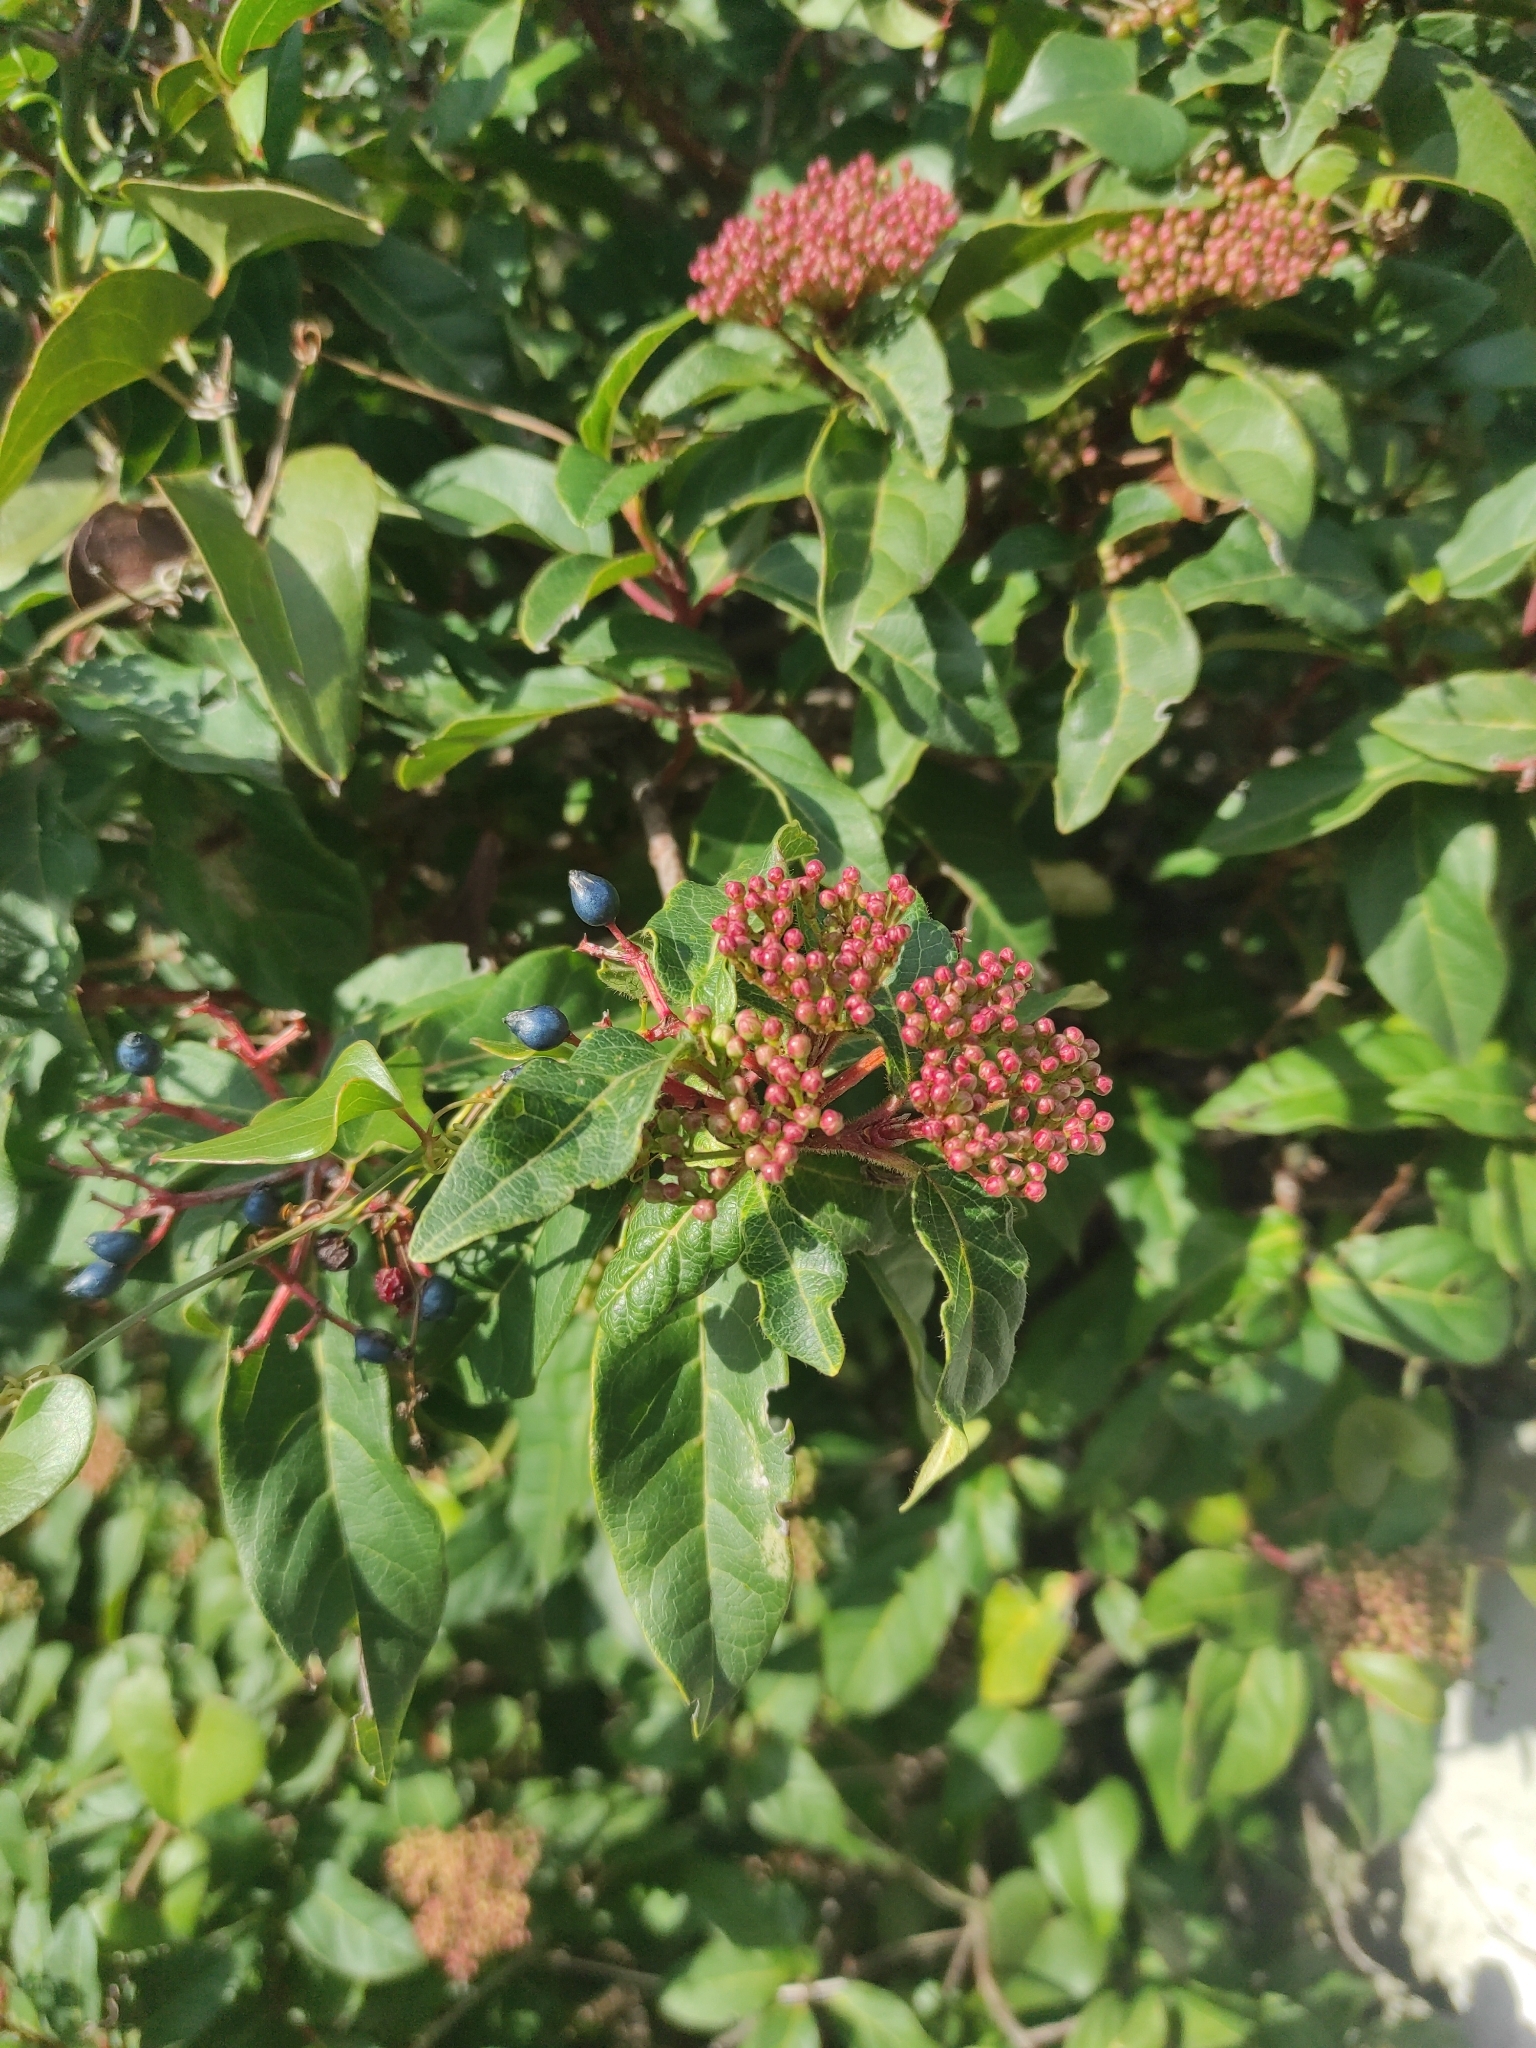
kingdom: Plantae
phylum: Tracheophyta
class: Magnoliopsida
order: Dipsacales
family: Viburnaceae
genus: Viburnum
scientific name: Viburnum tinus
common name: Laurustinus
